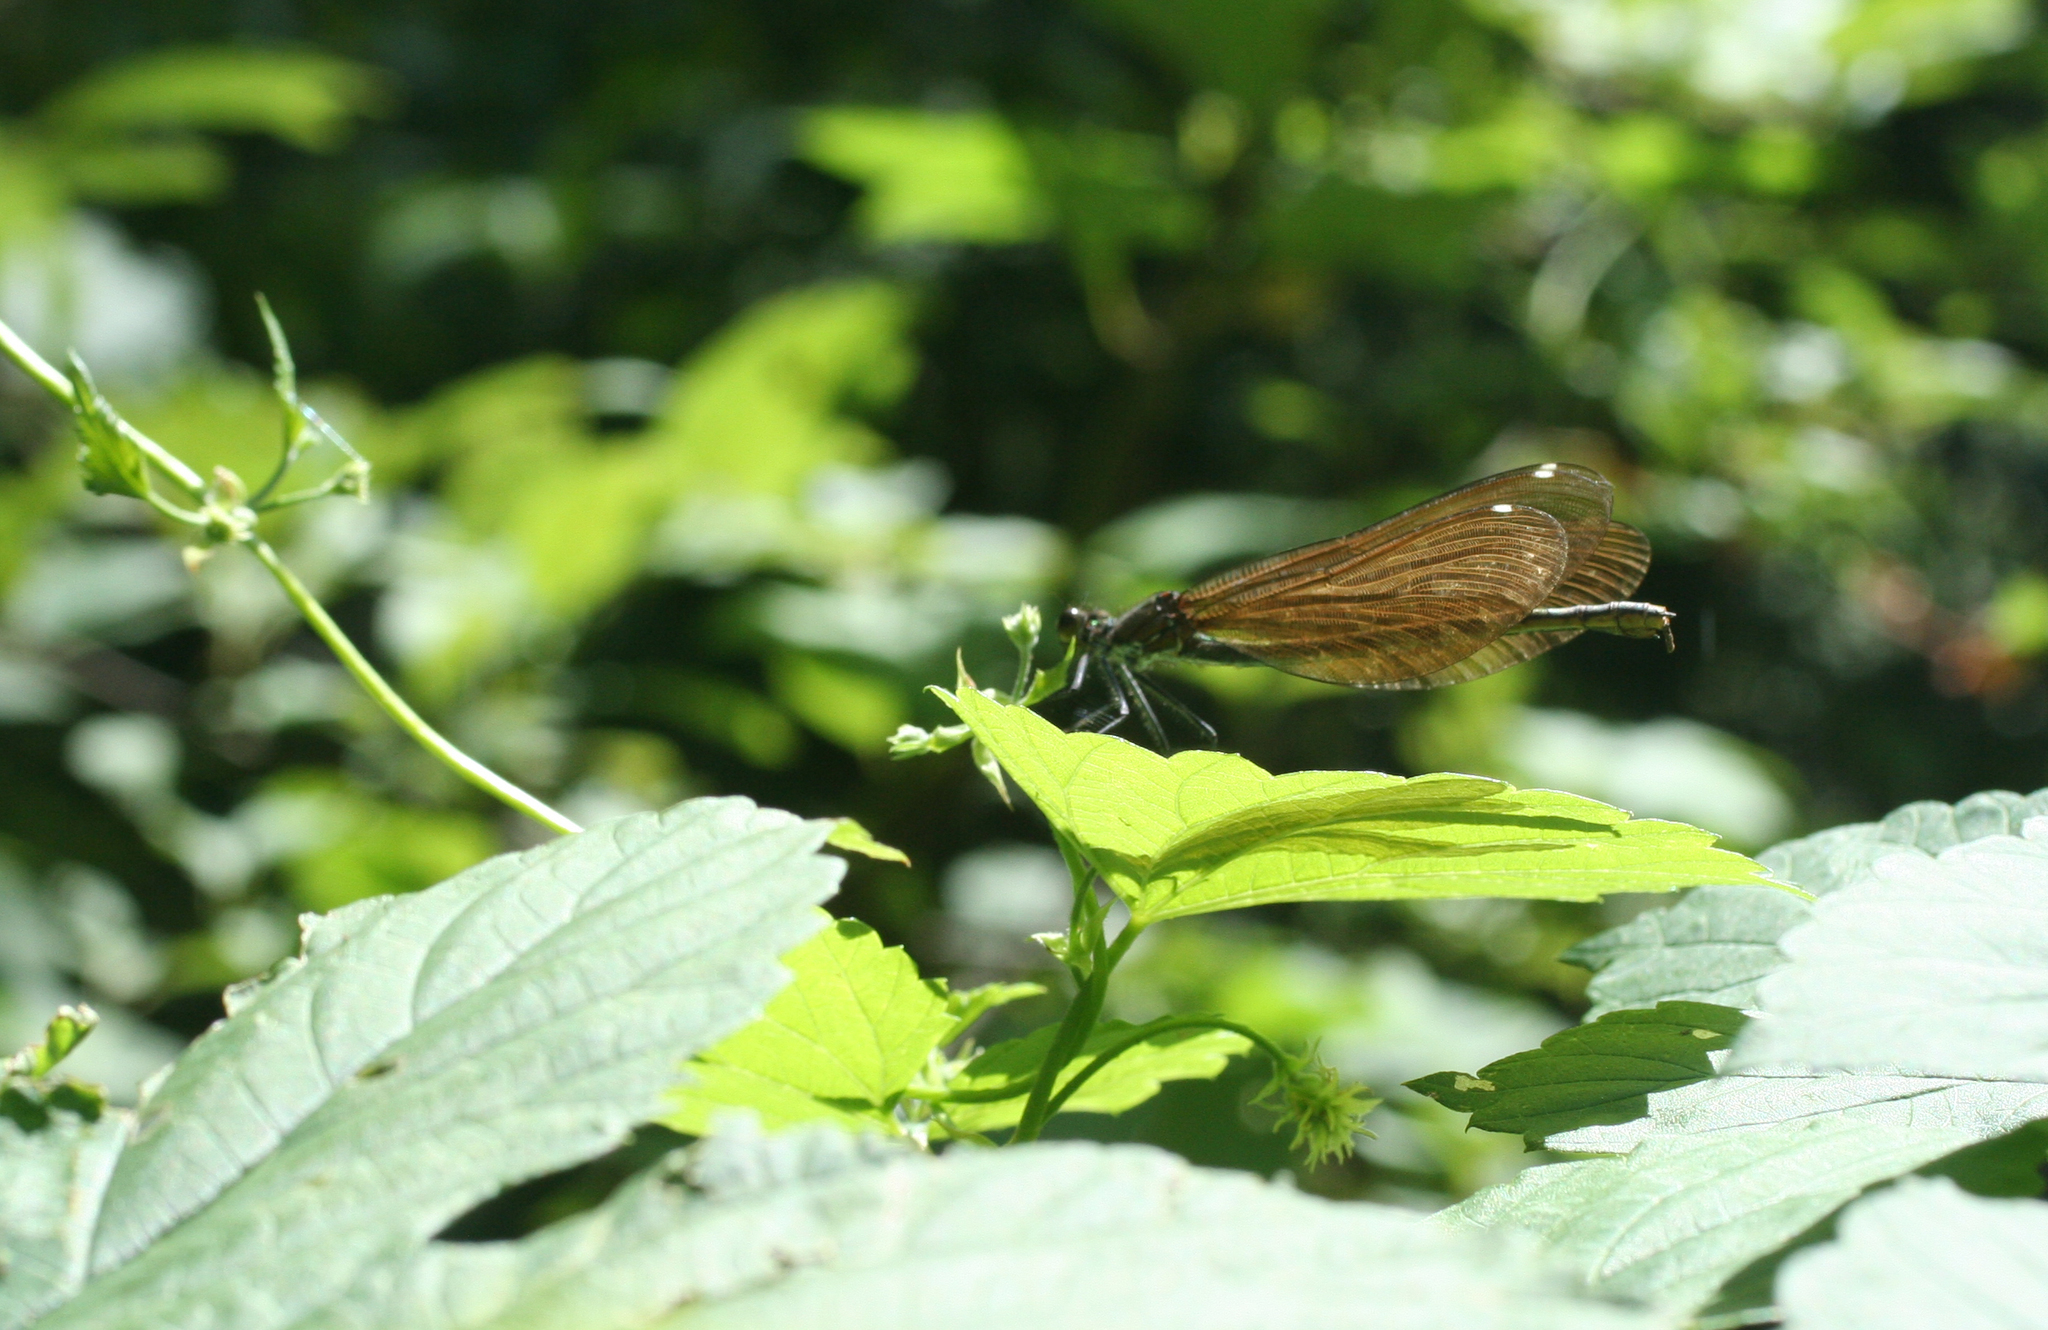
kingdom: Animalia
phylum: Arthropoda
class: Insecta
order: Odonata
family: Calopterygidae
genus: Calopteryx
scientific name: Calopteryx virgo
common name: Beautiful demoiselle
